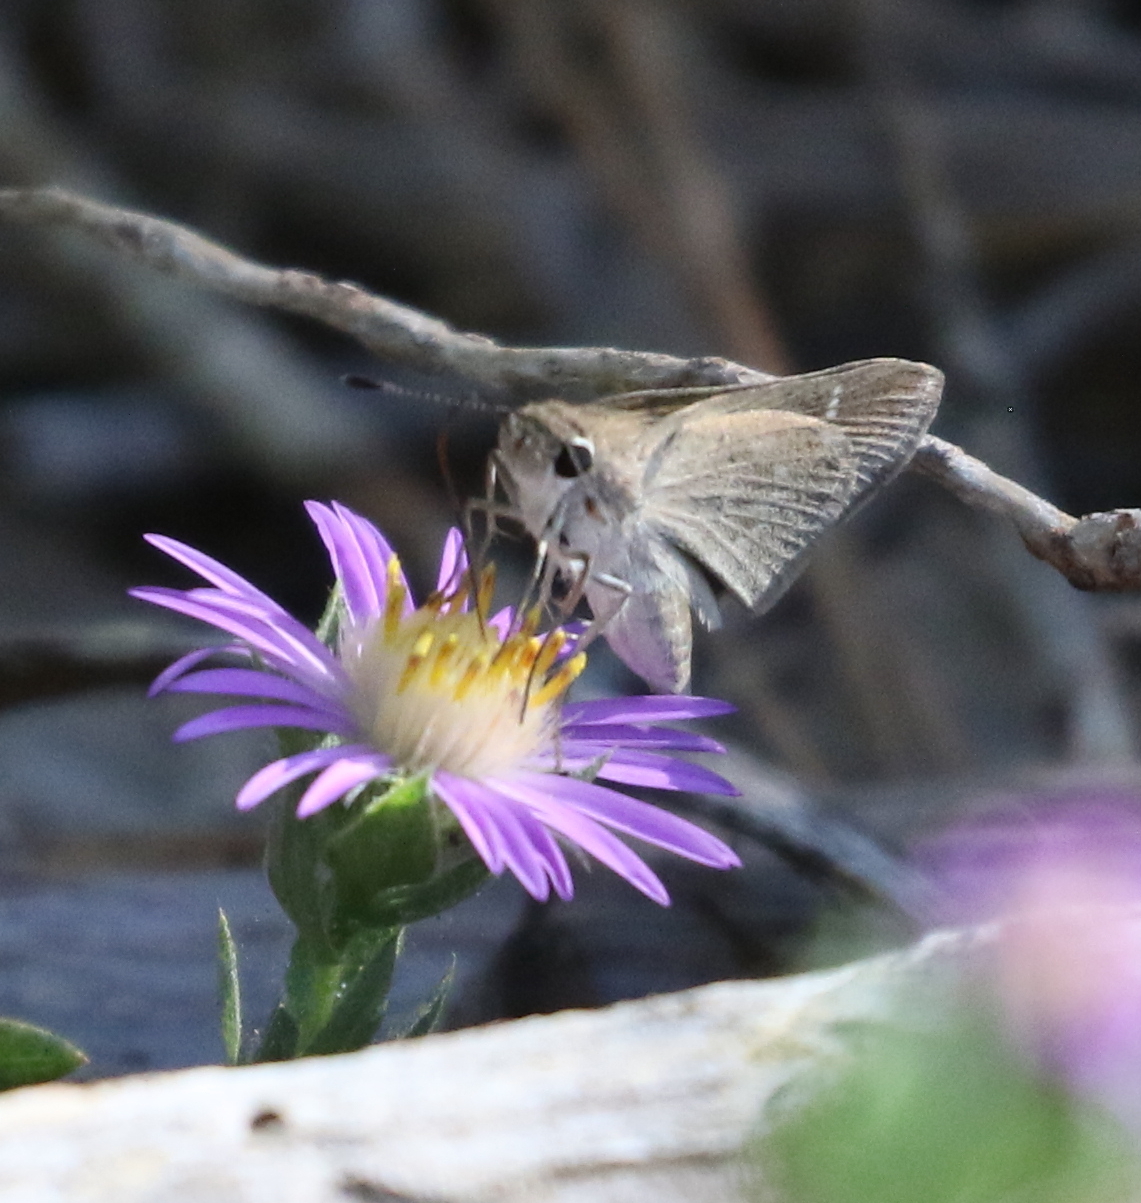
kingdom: Animalia
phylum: Arthropoda
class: Insecta
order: Lepidoptera
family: Hesperiidae
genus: Lerodea
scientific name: Lerodea eufala
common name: Eufala skipper
